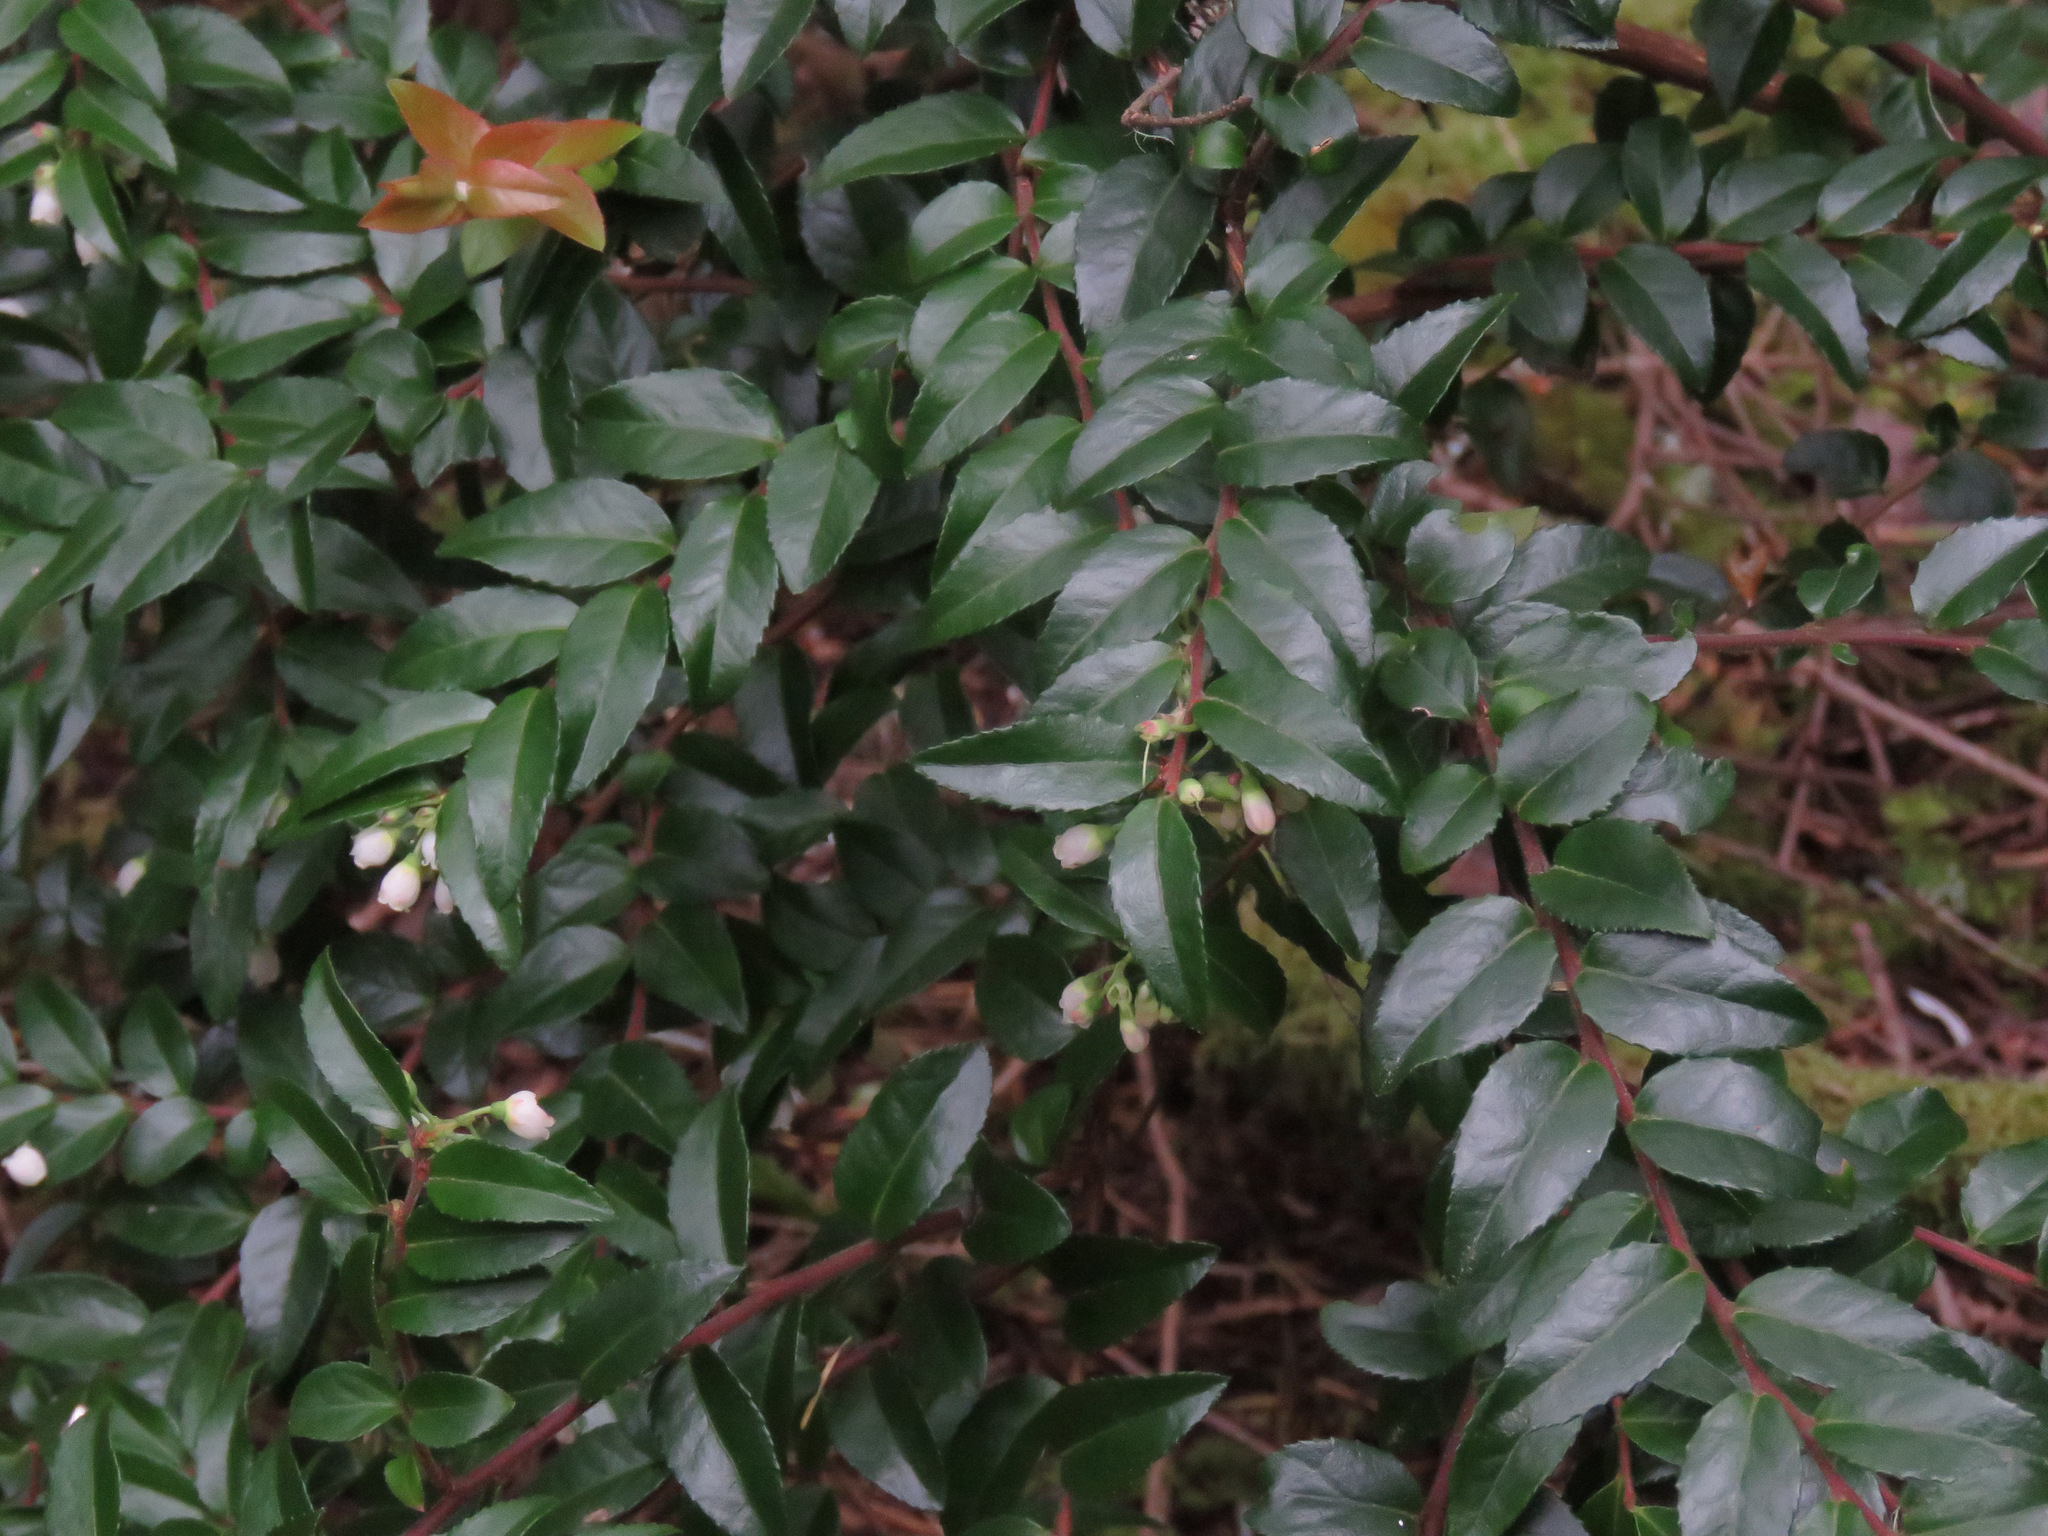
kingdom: Plantae
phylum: Tracheophyta
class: Magnoliopsida
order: Celastrales
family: Celastraceae
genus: Paxistima
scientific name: Paxistima myrsinites
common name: Mountain-lover
